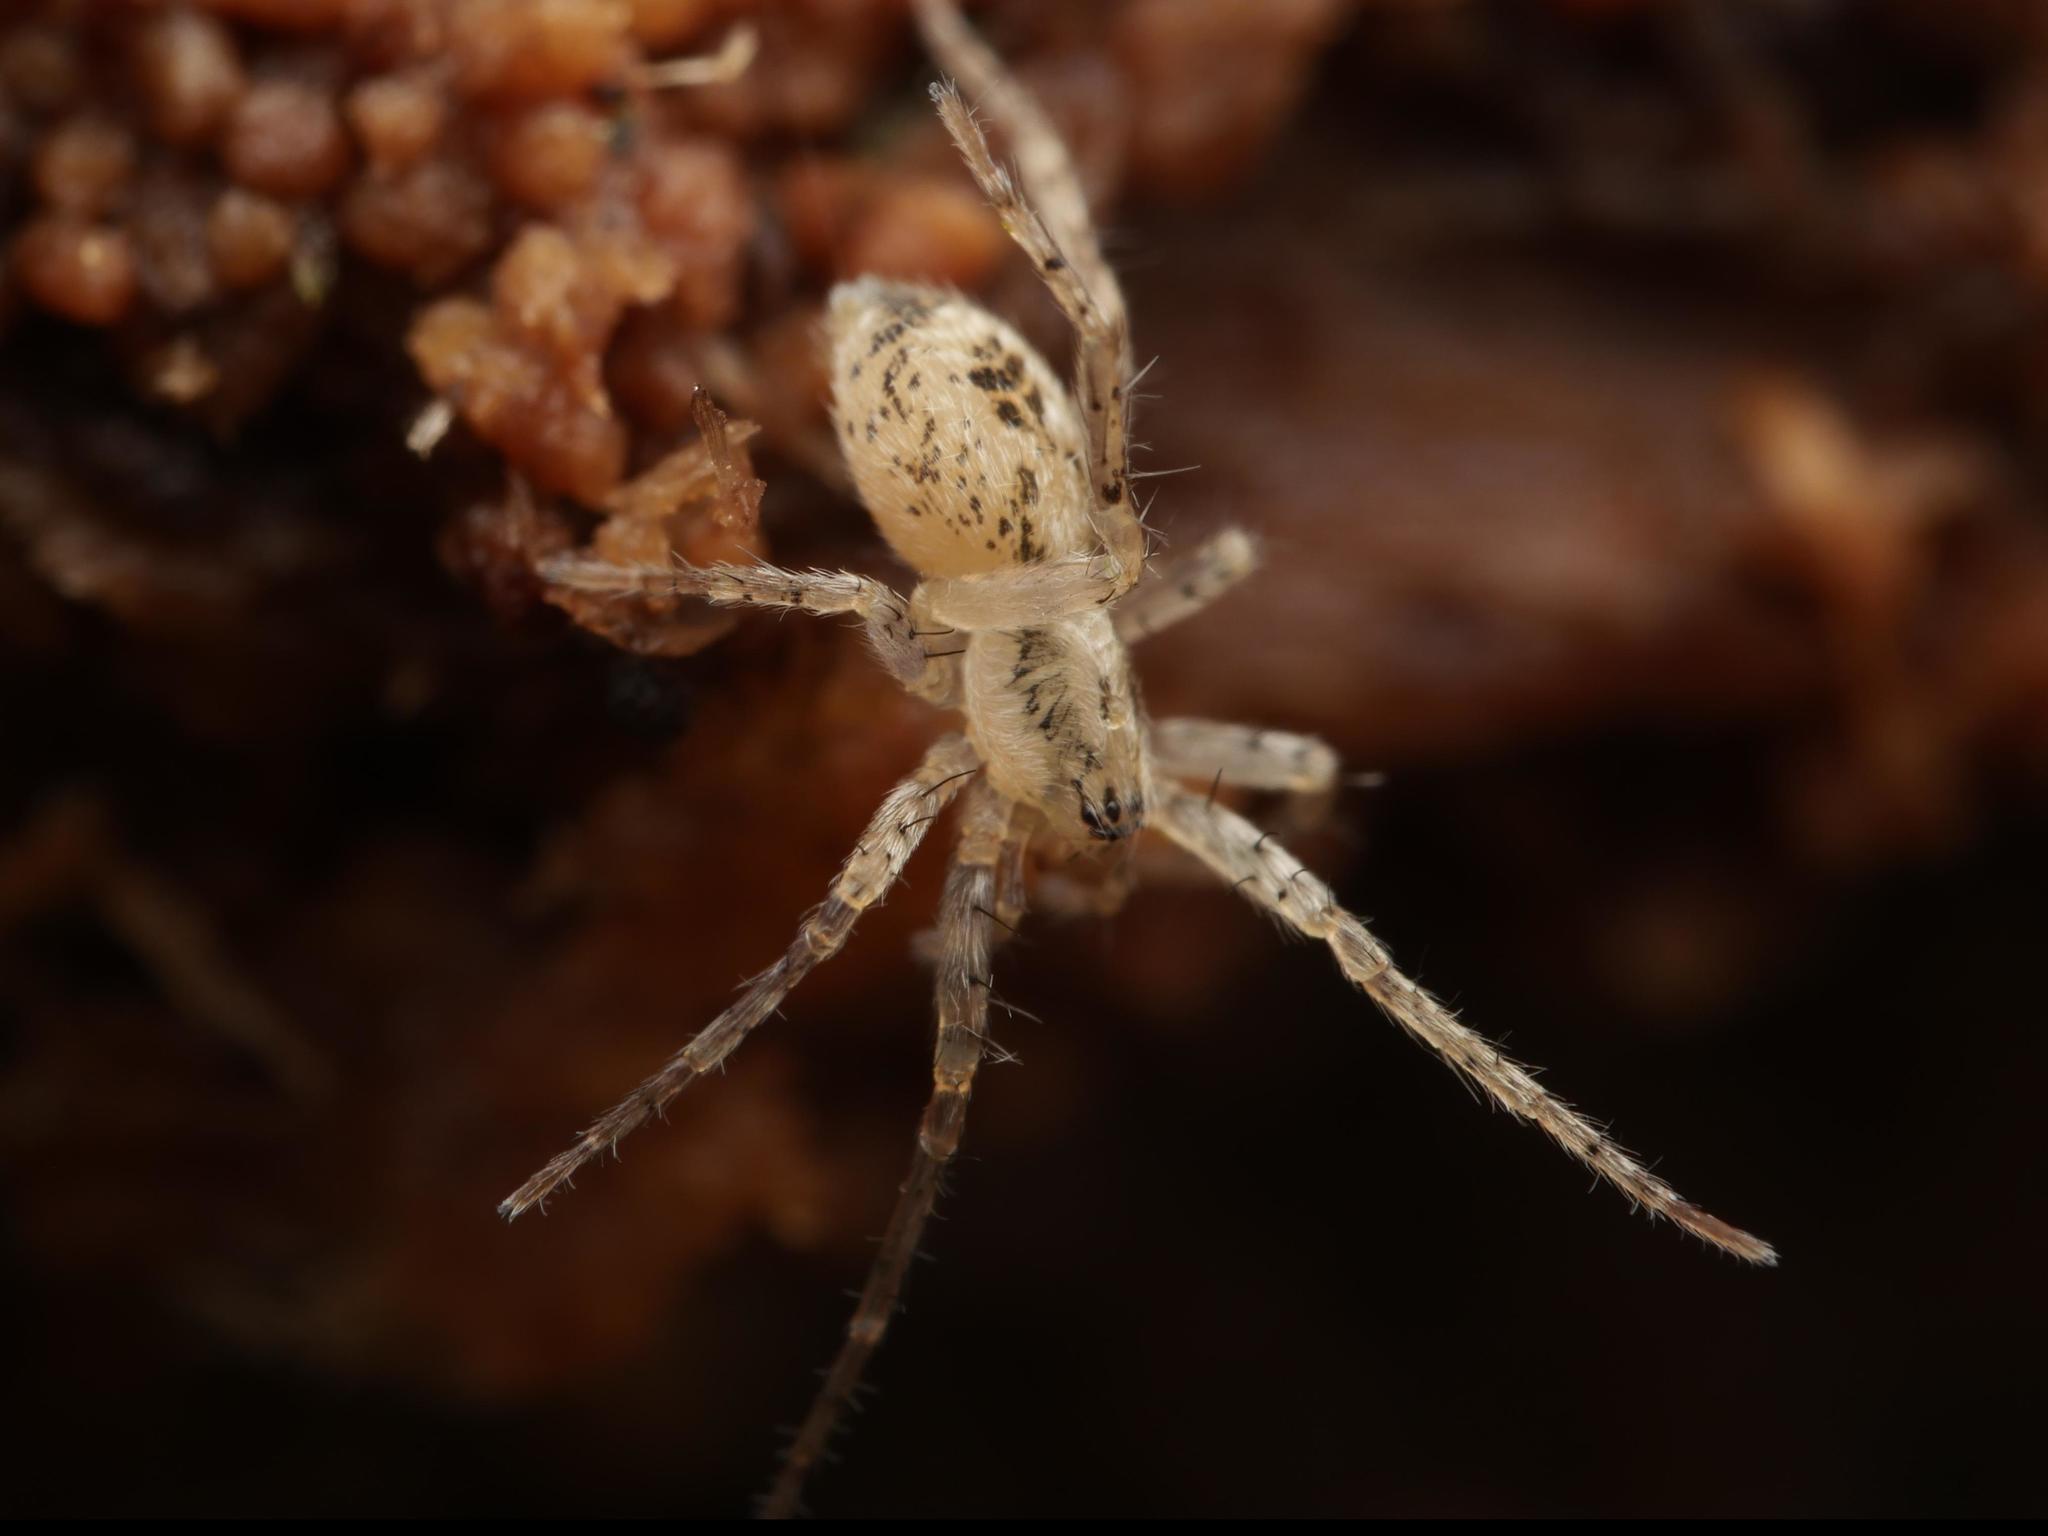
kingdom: Animalia
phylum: Arthropoda
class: Arachnida
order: Araneae
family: Anyphaenidae
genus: Anyphaena
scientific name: Anyphaena accentuata
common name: Buzzing spider
